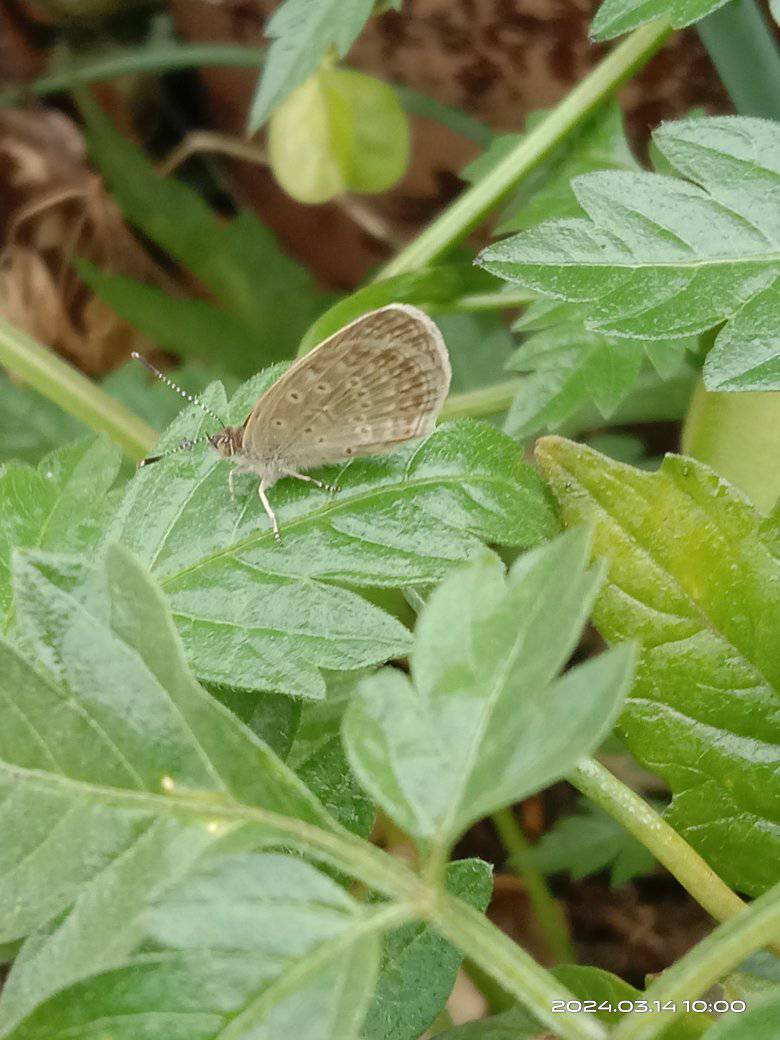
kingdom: Animalia
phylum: Arthropoda
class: Insecta
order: Lepidoptera
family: Lycaenidae
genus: Pseudozizeeria
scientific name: Pseudozizeeria maha
